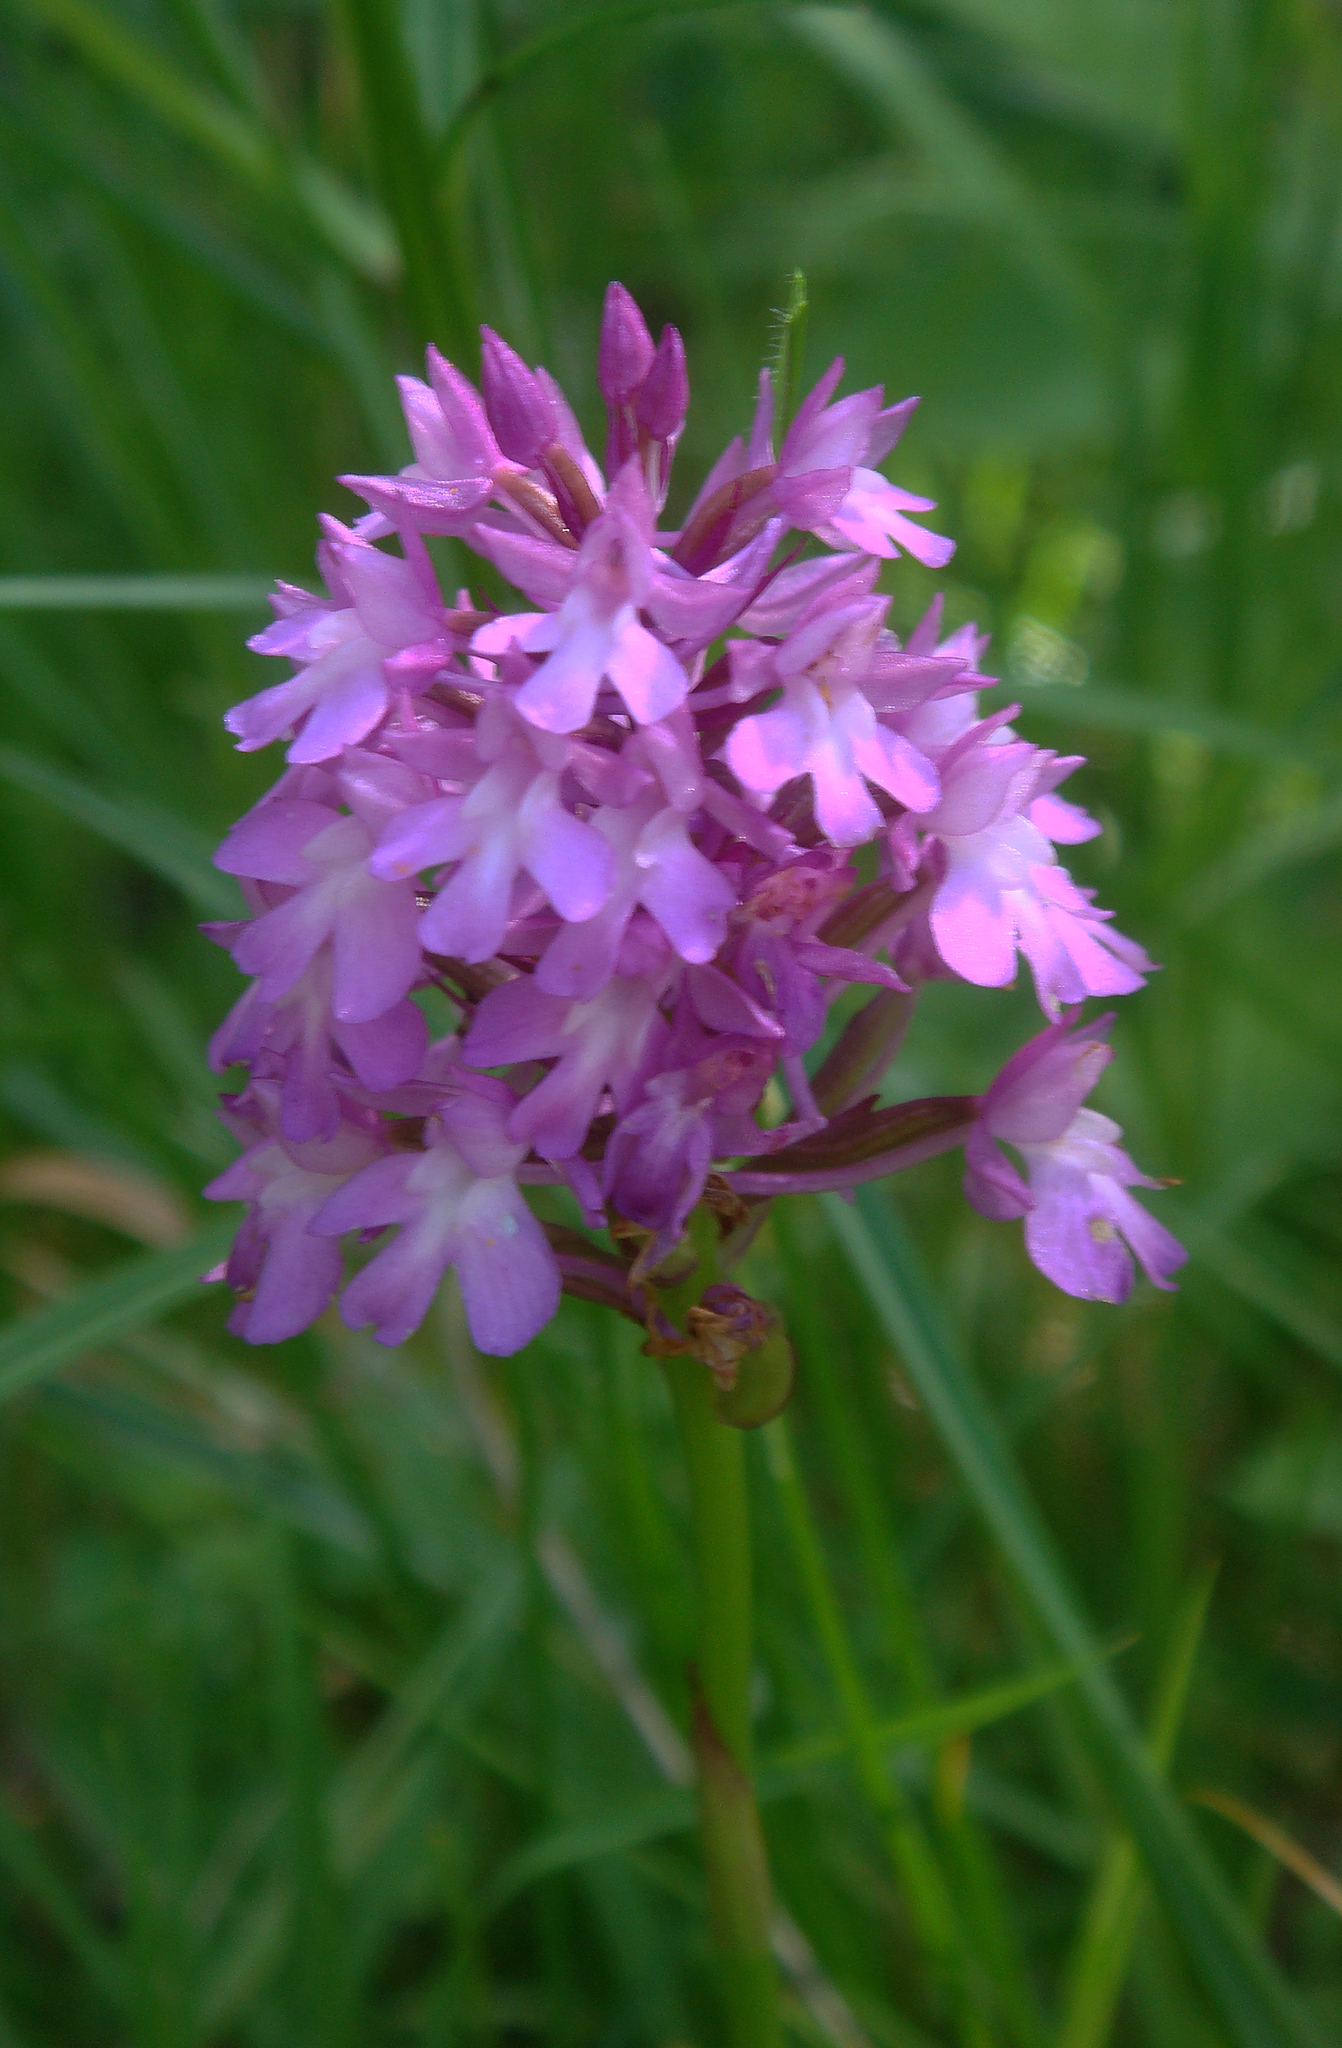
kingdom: Plantae
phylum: Tracheophyta
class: Liliopsida
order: Asparagales
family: Orchidaceae
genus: Anacamptis
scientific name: Anacamptis pyramidalis
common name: Pyramidal orchid
